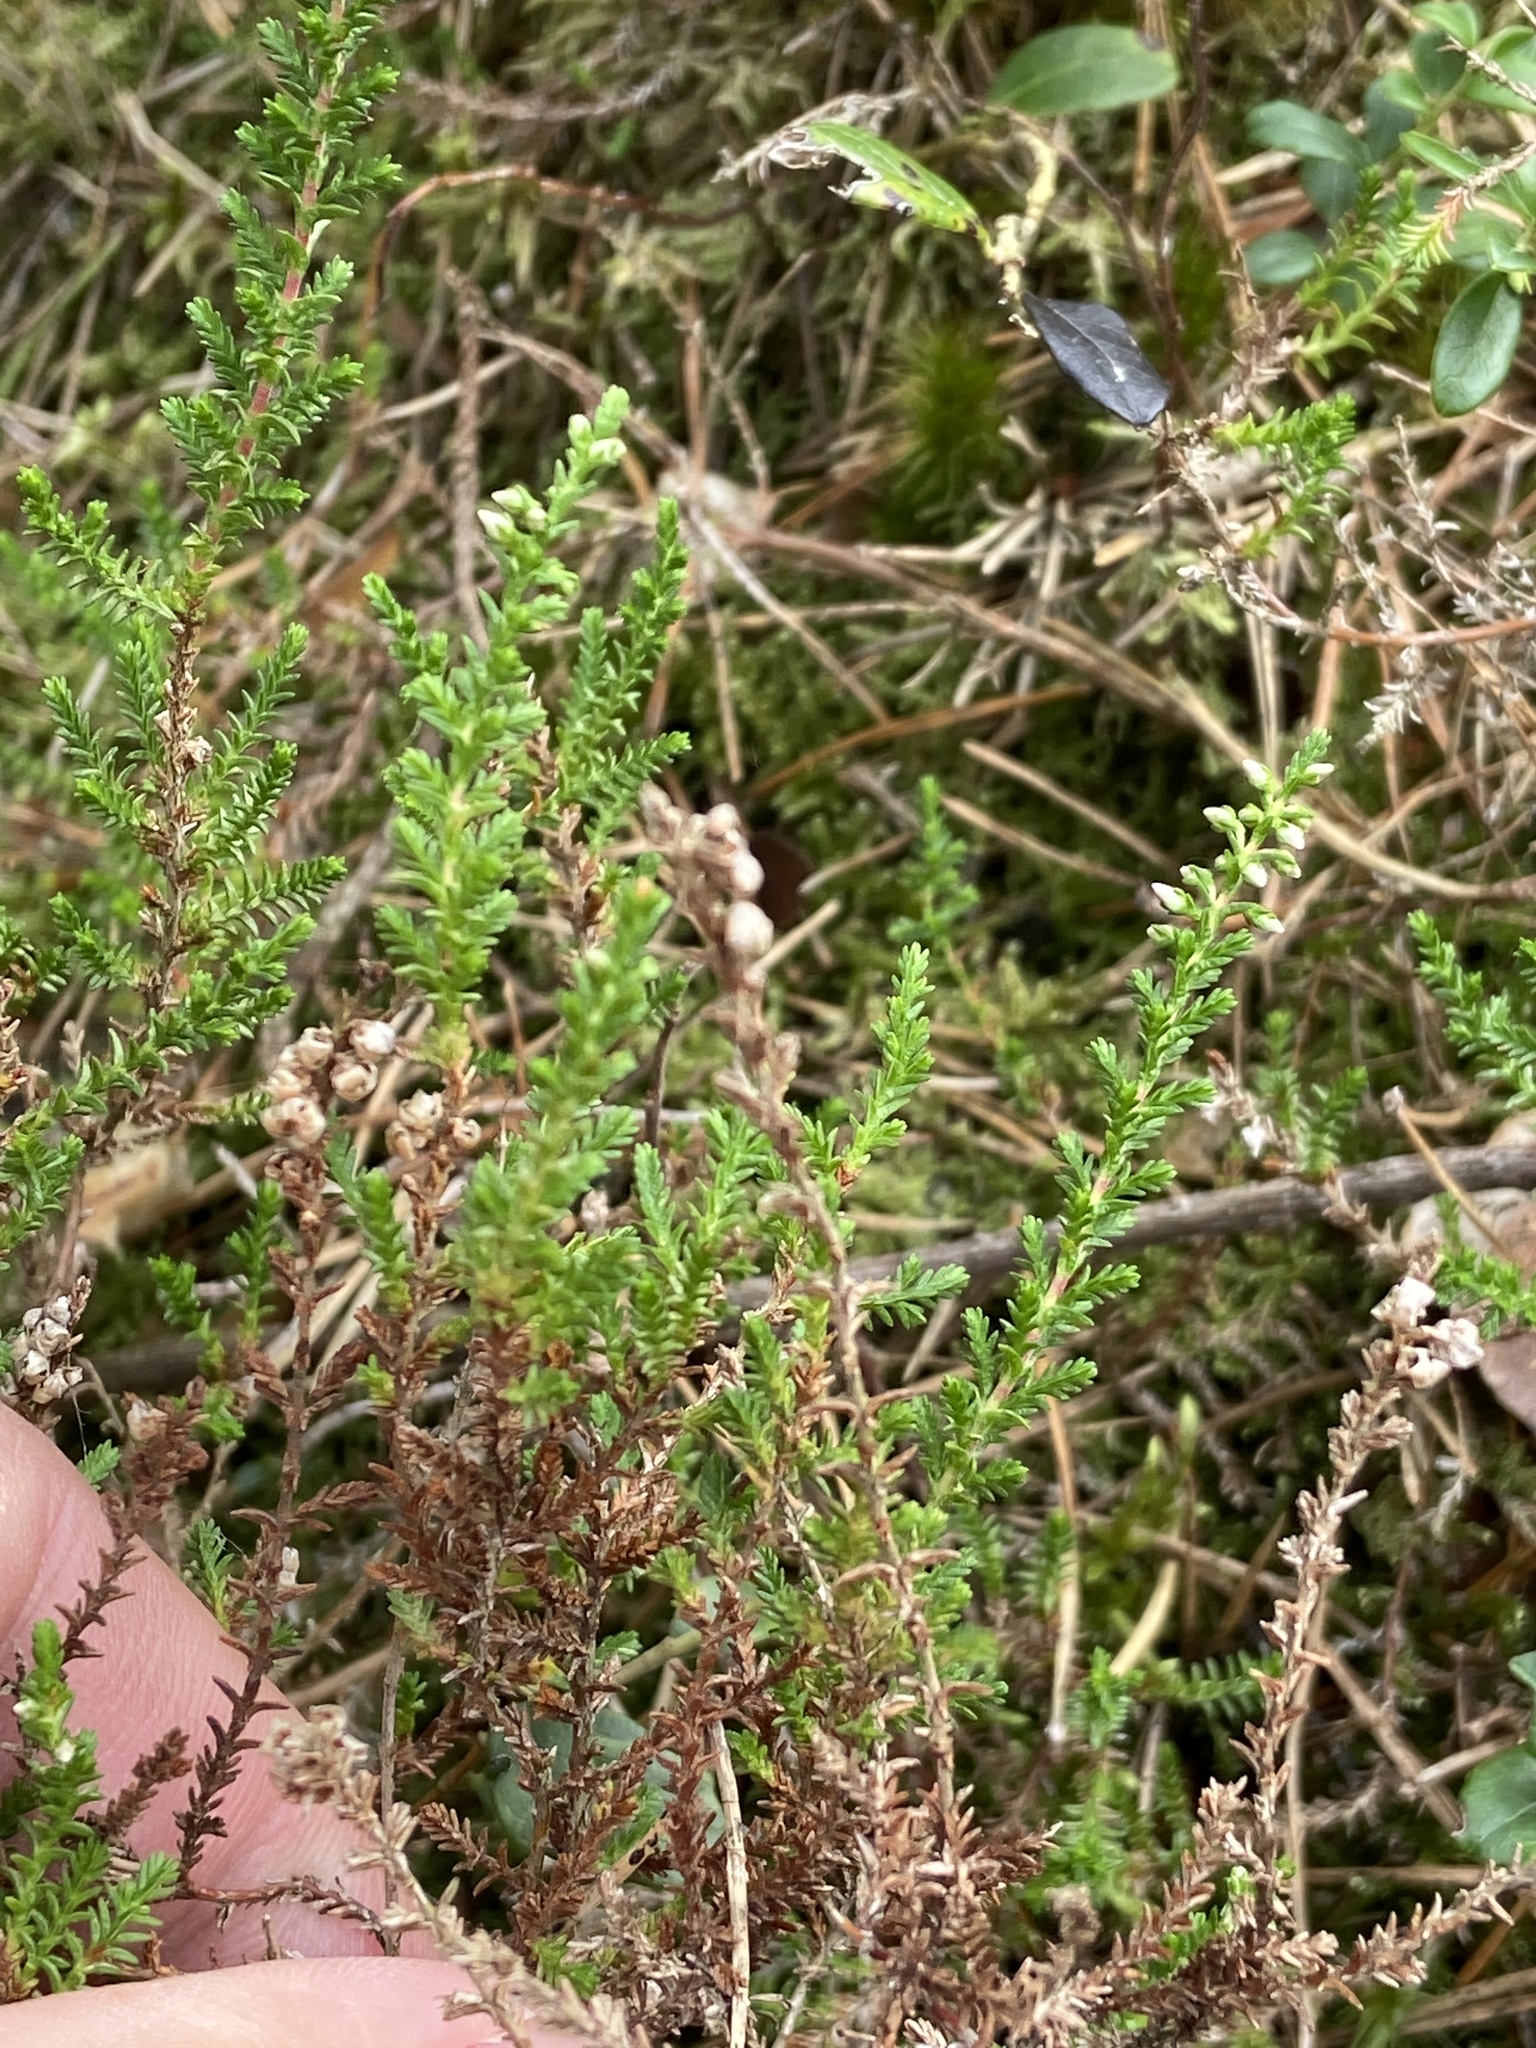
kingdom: Plantae
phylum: Tracheophyta
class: Magnoliopsida
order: Ericales
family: Ericaceae
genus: Calluna
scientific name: Calluna vulgaris
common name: Heather
